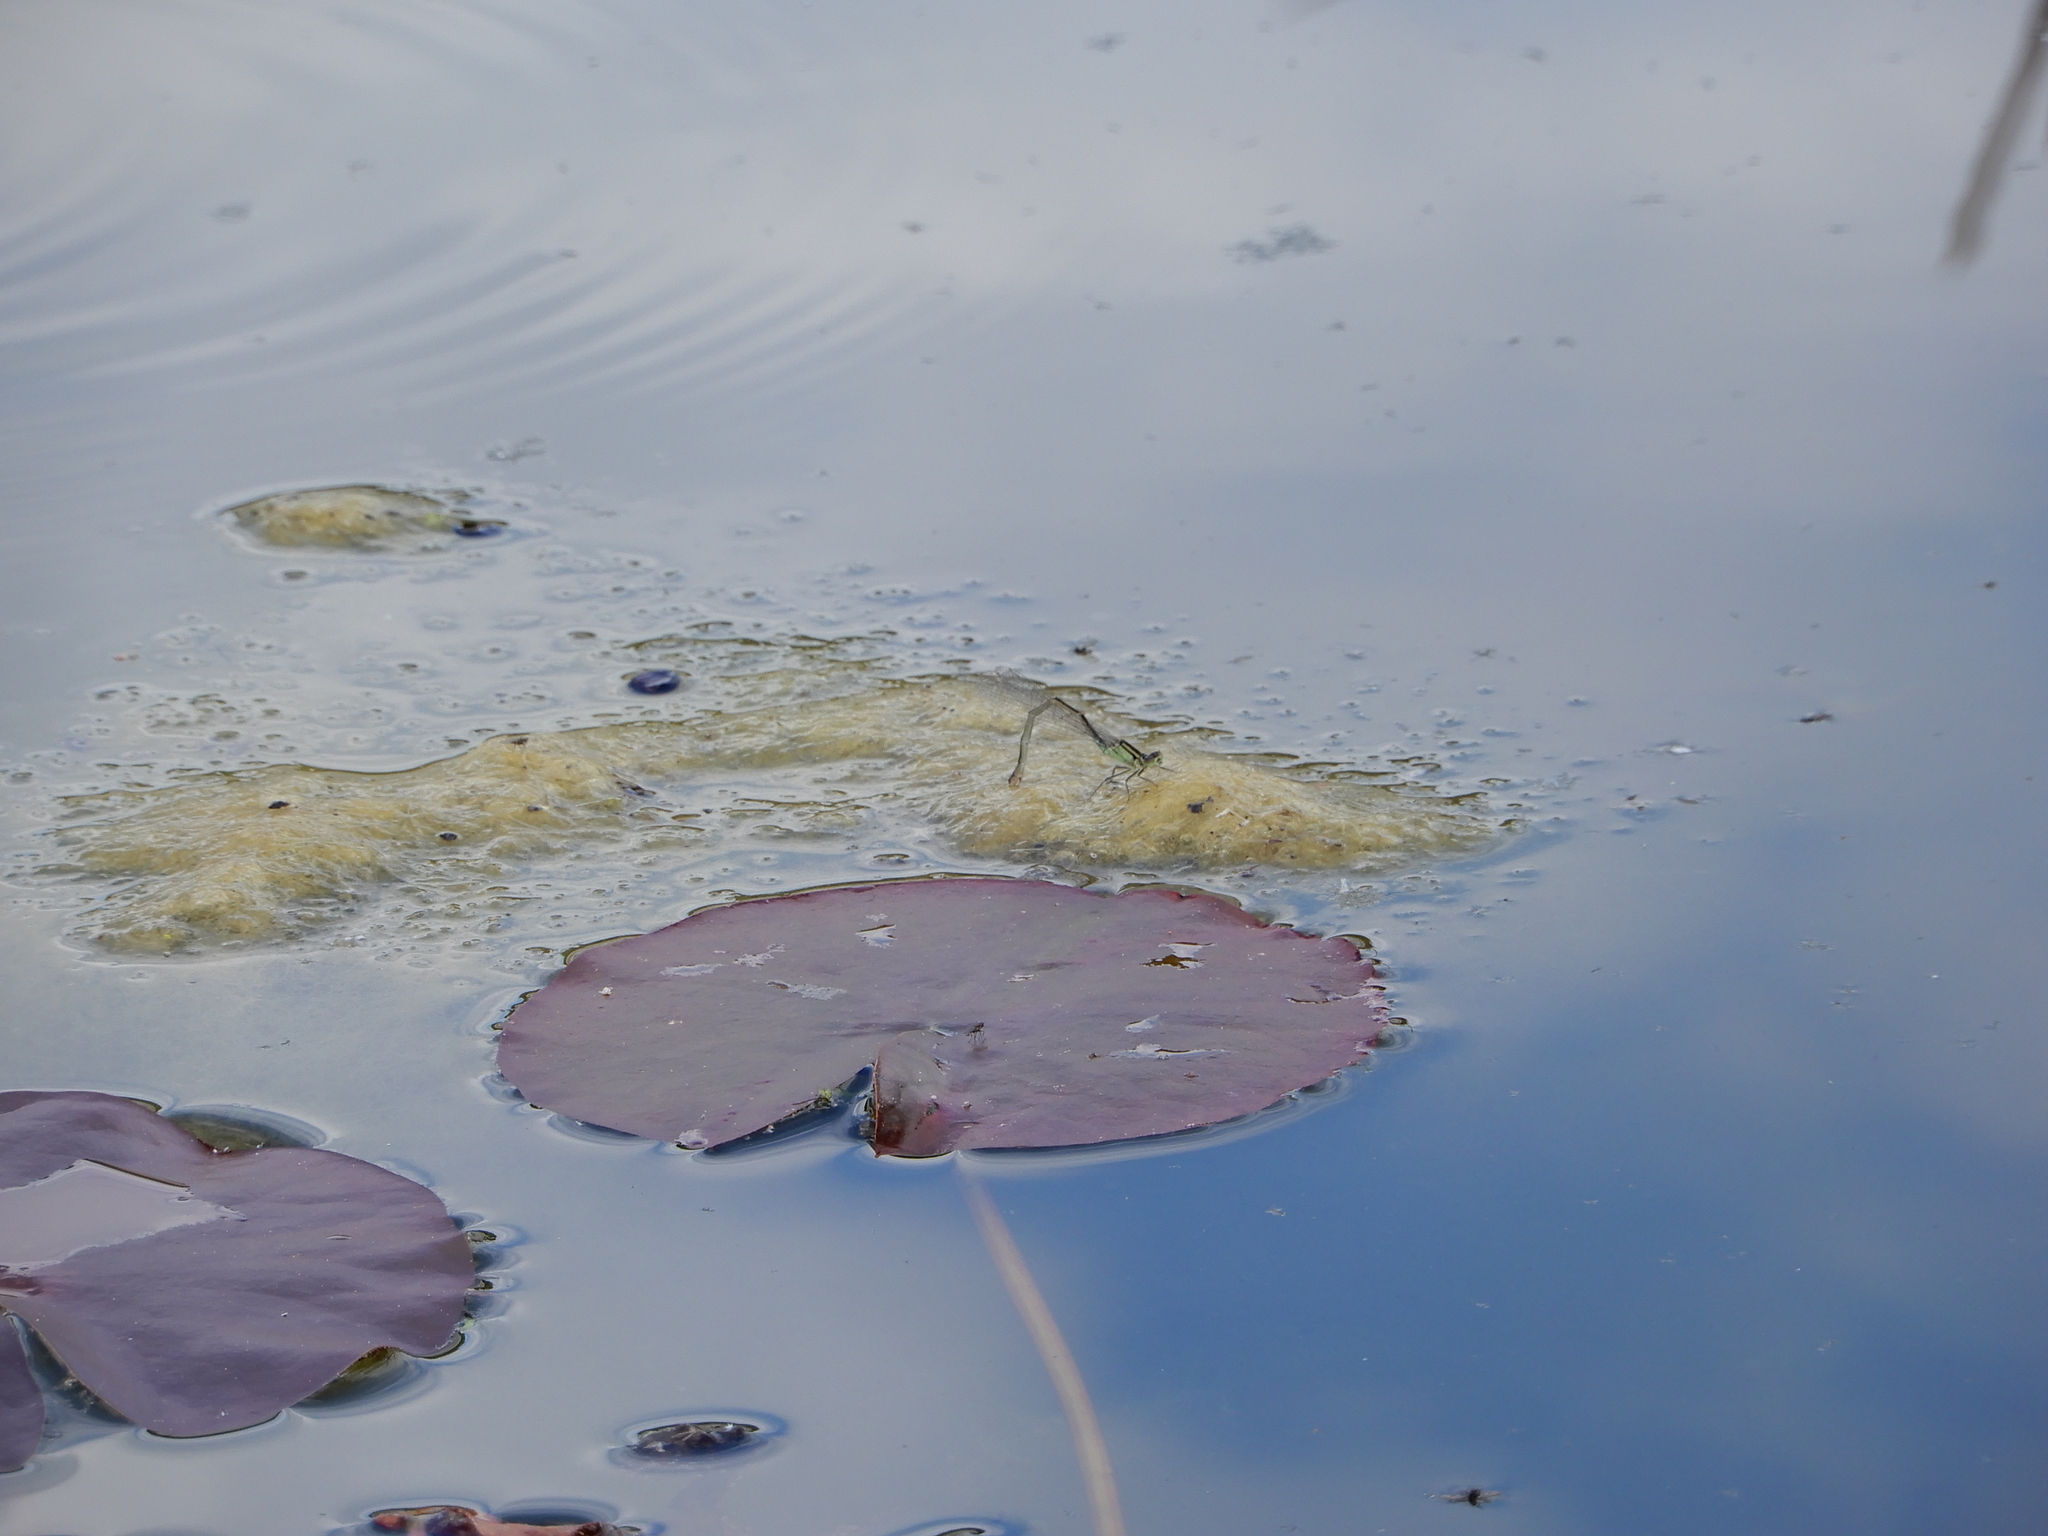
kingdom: Animalia
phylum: Arthropoda
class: Insecta
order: Odonata
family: Coenagrionidae
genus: Ischnura
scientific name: Ischnura elegans
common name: Blue-tailed damselfly
